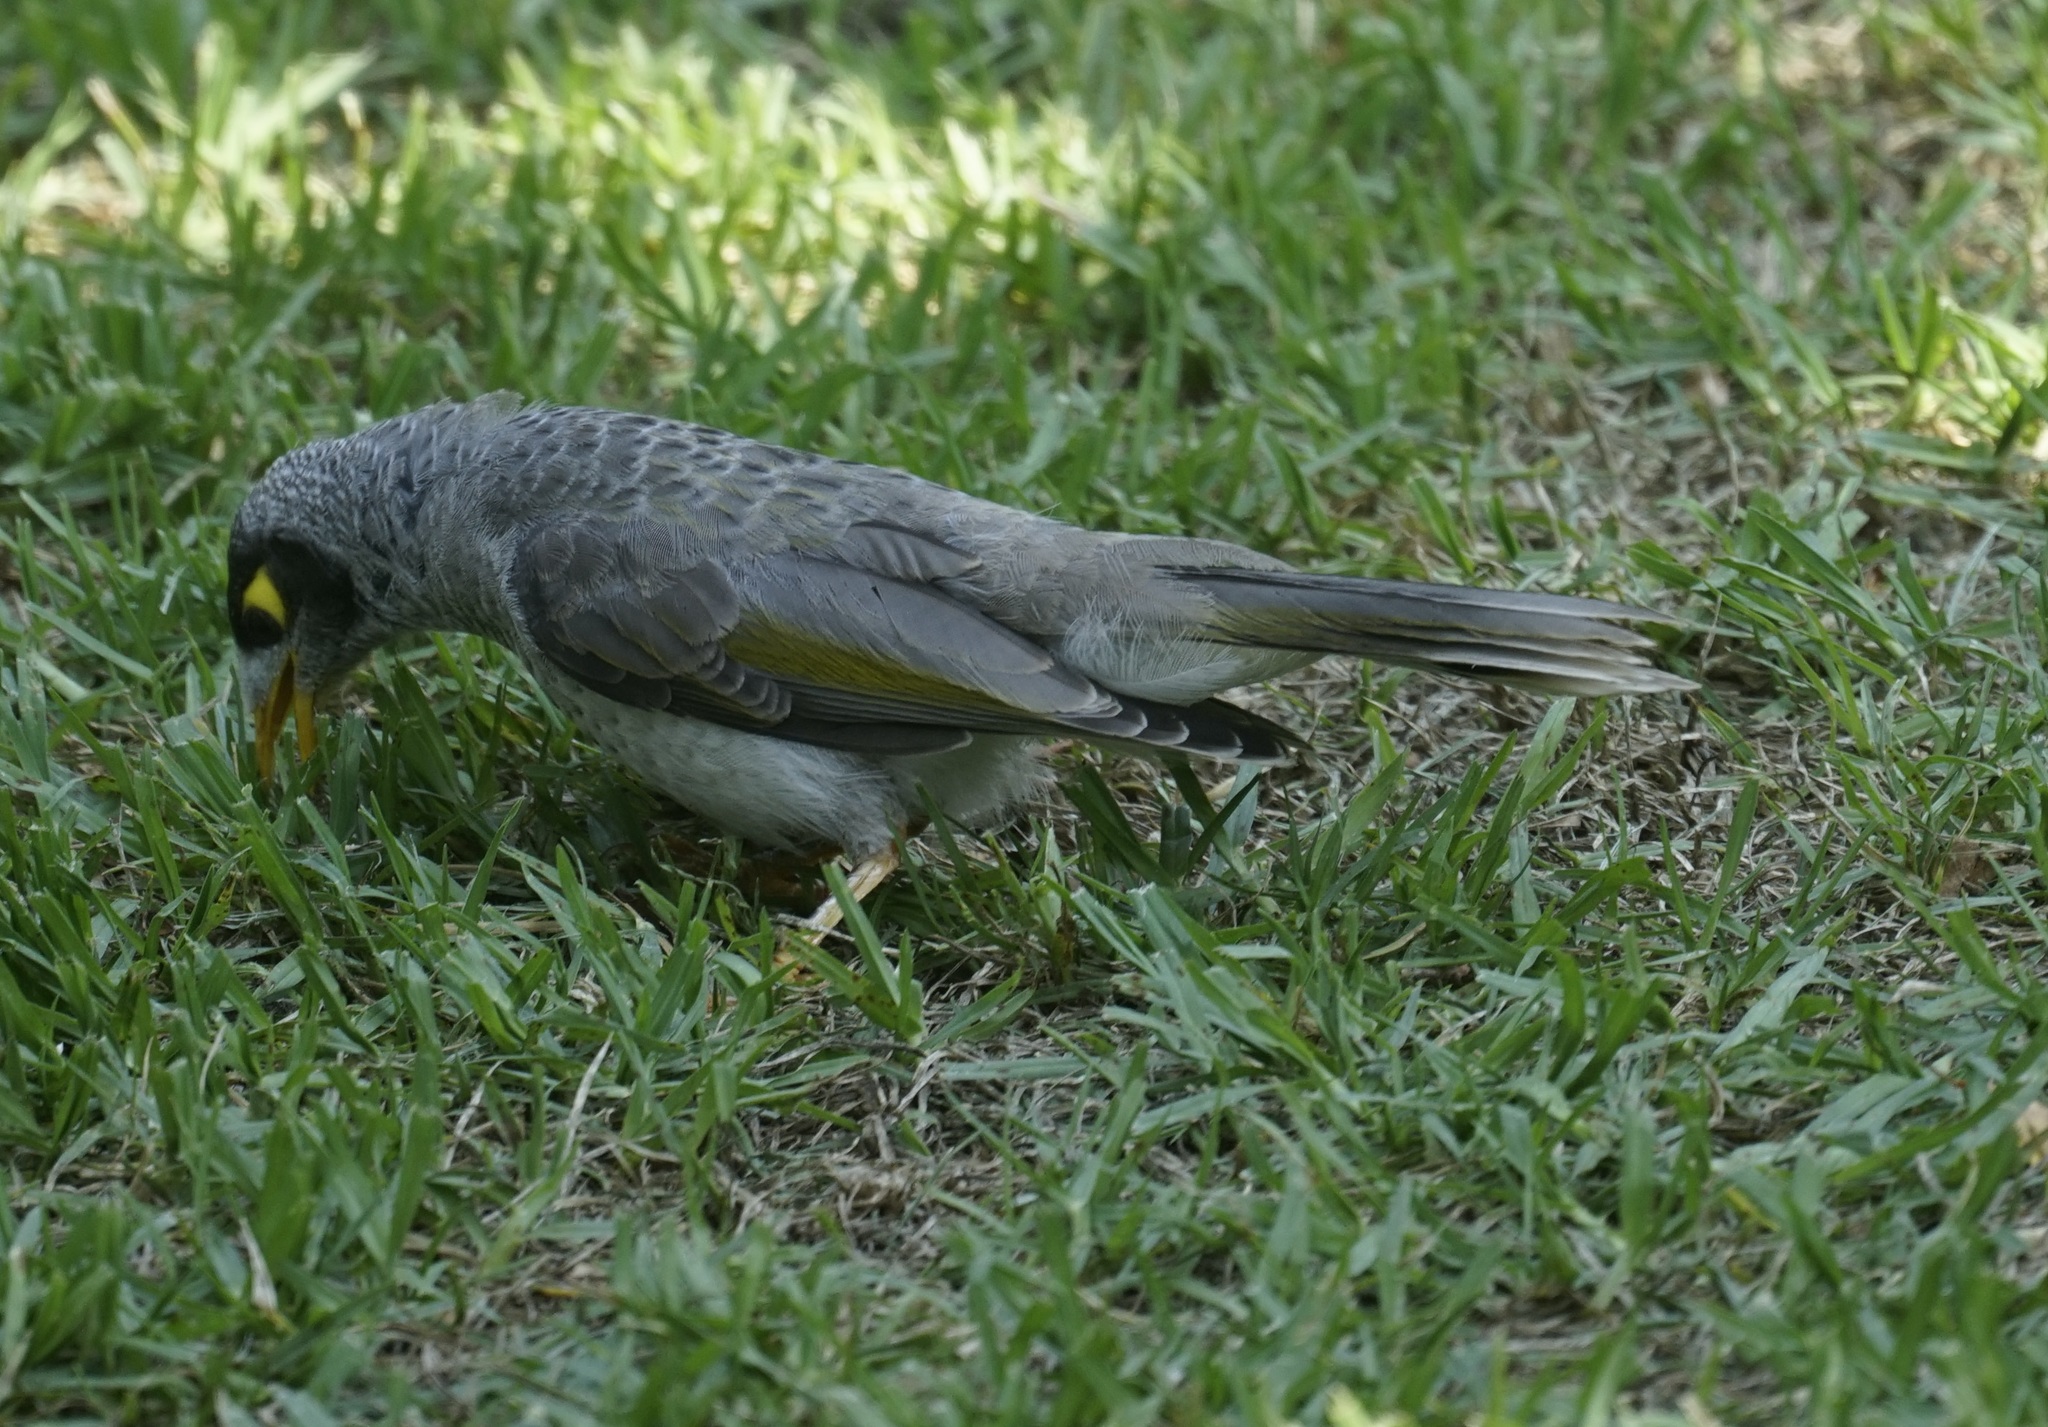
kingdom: Animalia
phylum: Chordata
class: Aves
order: Passeriformes
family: Meliphagidae
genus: Manorina
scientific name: Manorina melanocephala
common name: Noisy miner
